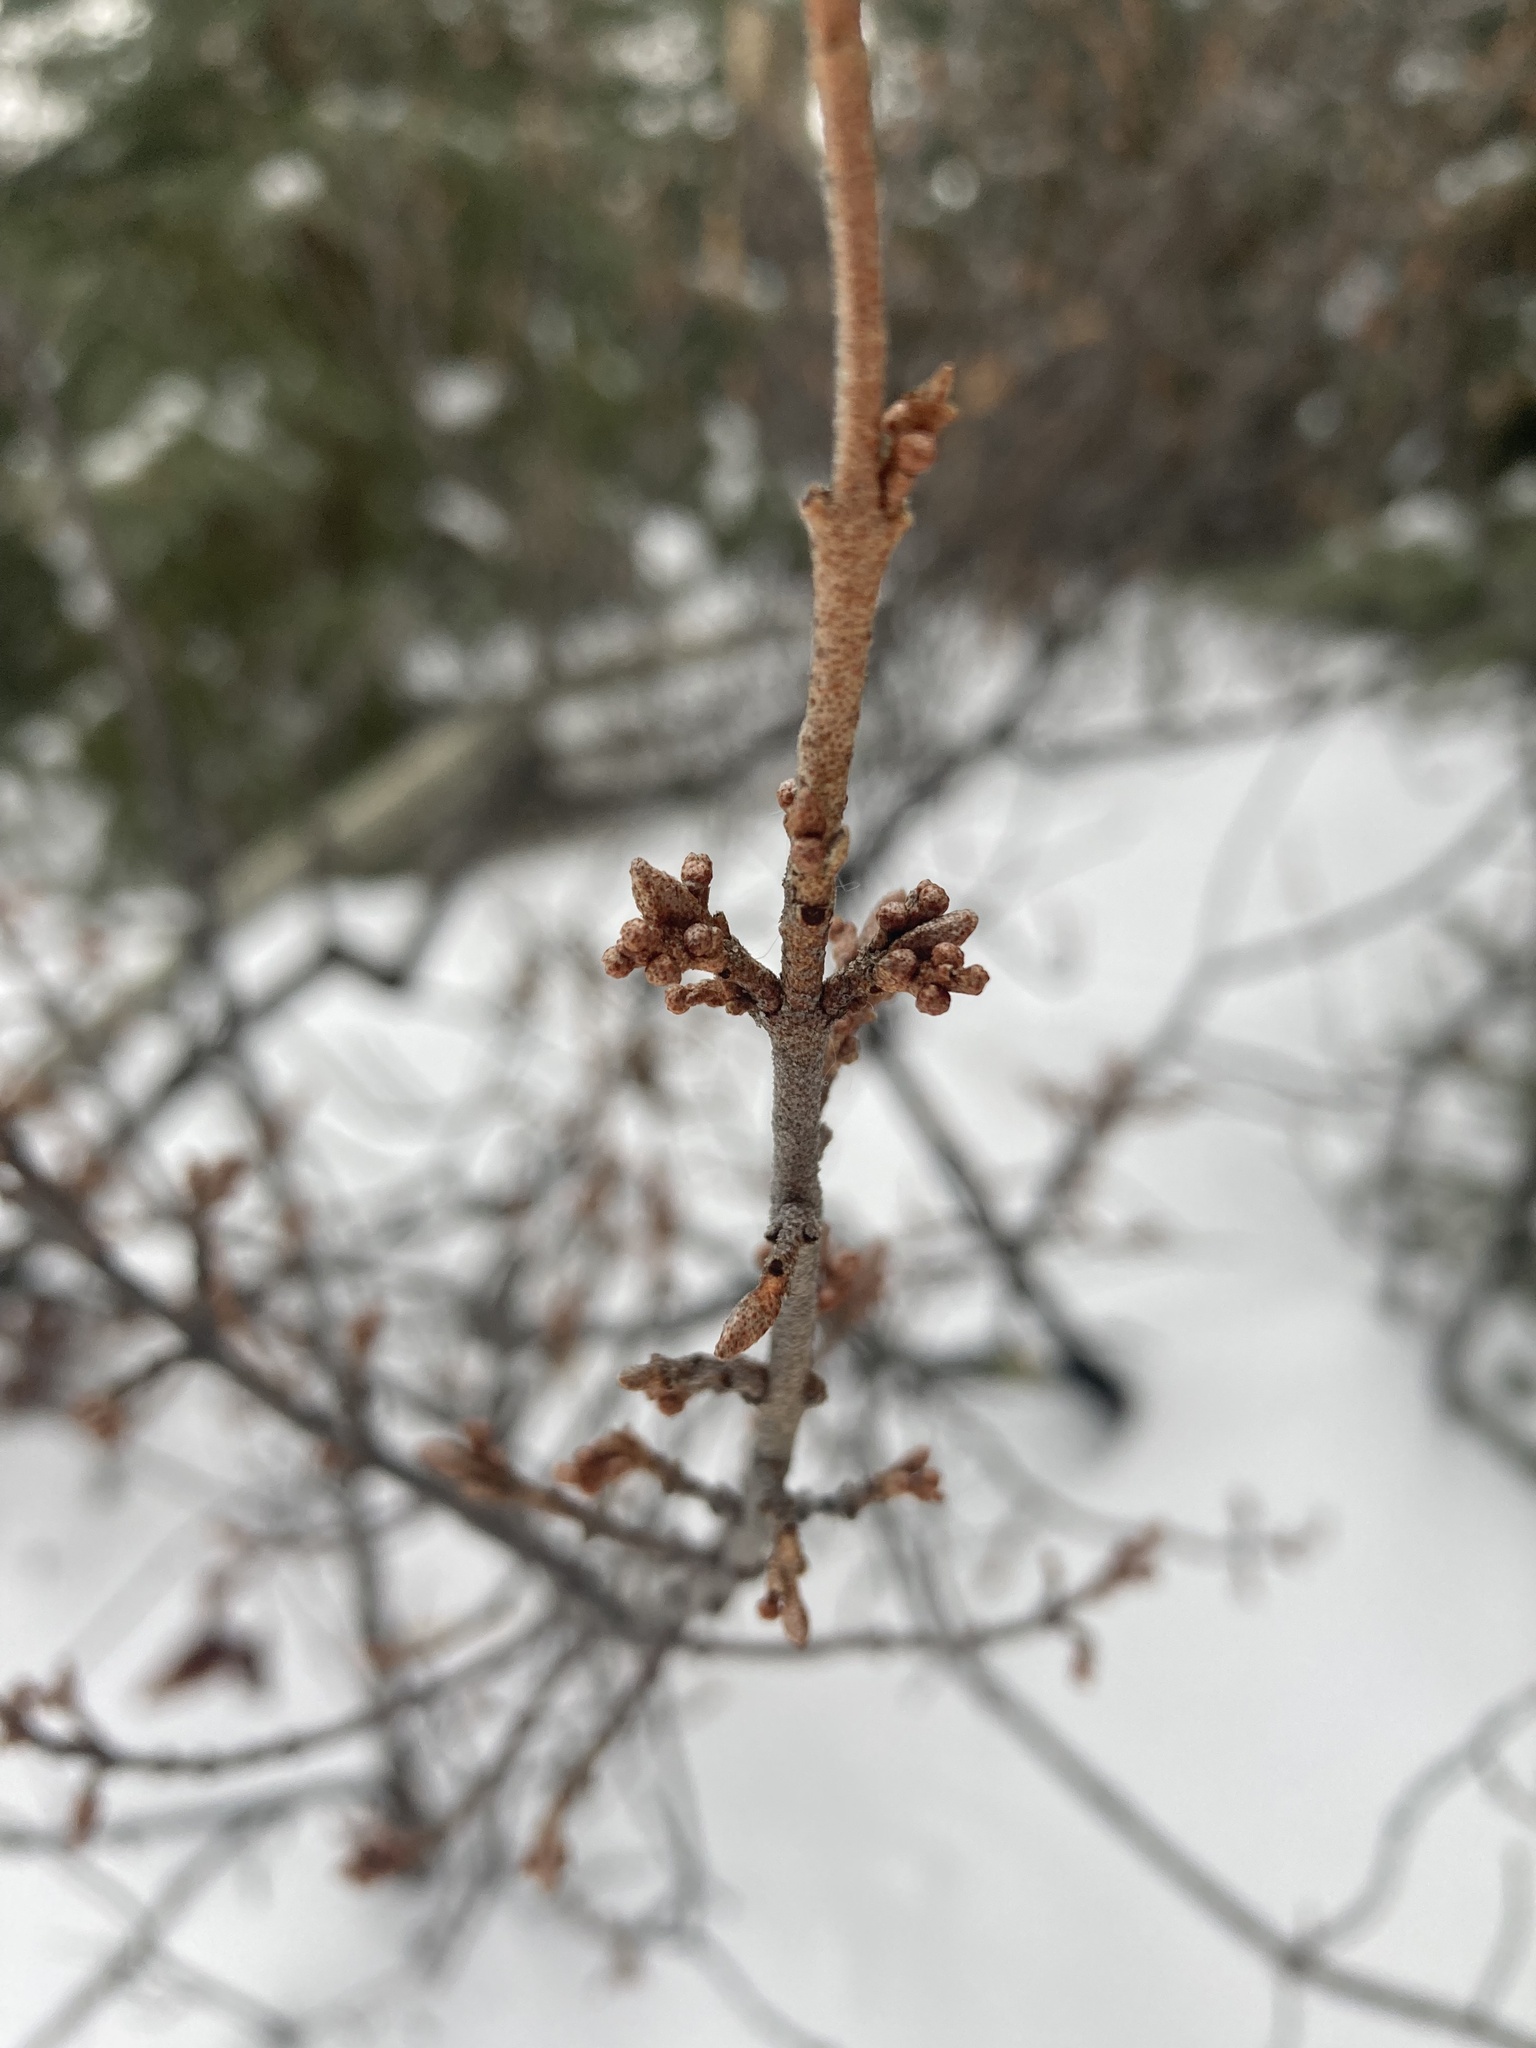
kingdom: Plantae
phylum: Tracheophyta
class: Magnoliopsida
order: Rosales
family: Elaeagnaceae
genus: Shepherdia
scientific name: Shepherdia canadensis
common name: Soapberry
